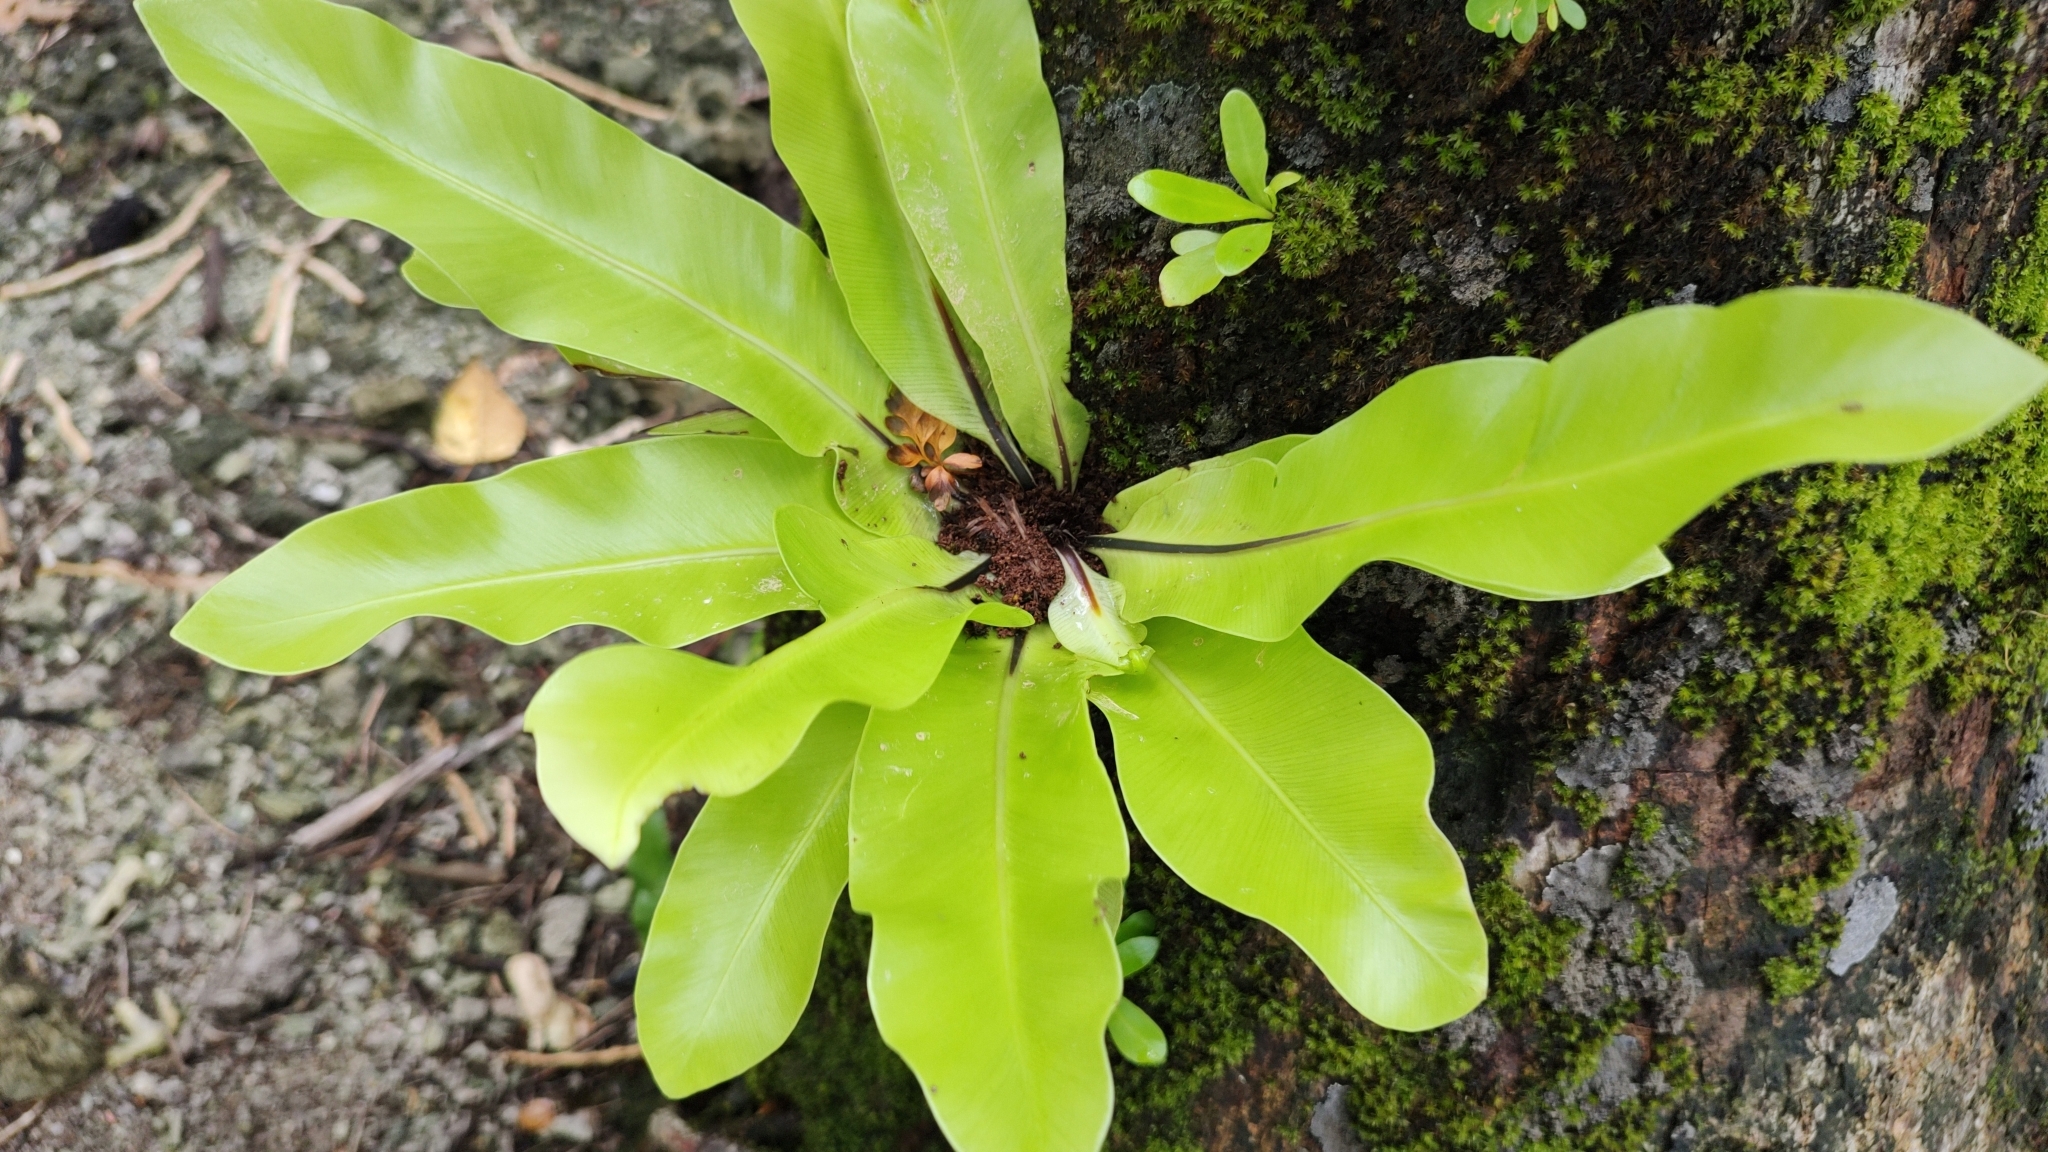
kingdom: Plantae
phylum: Tracheophyta
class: Polypodiopsida
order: Polypodiales
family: Aspleniaceae
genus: Asplenium
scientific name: Asplenium nidus
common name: Bird's-nest fern
